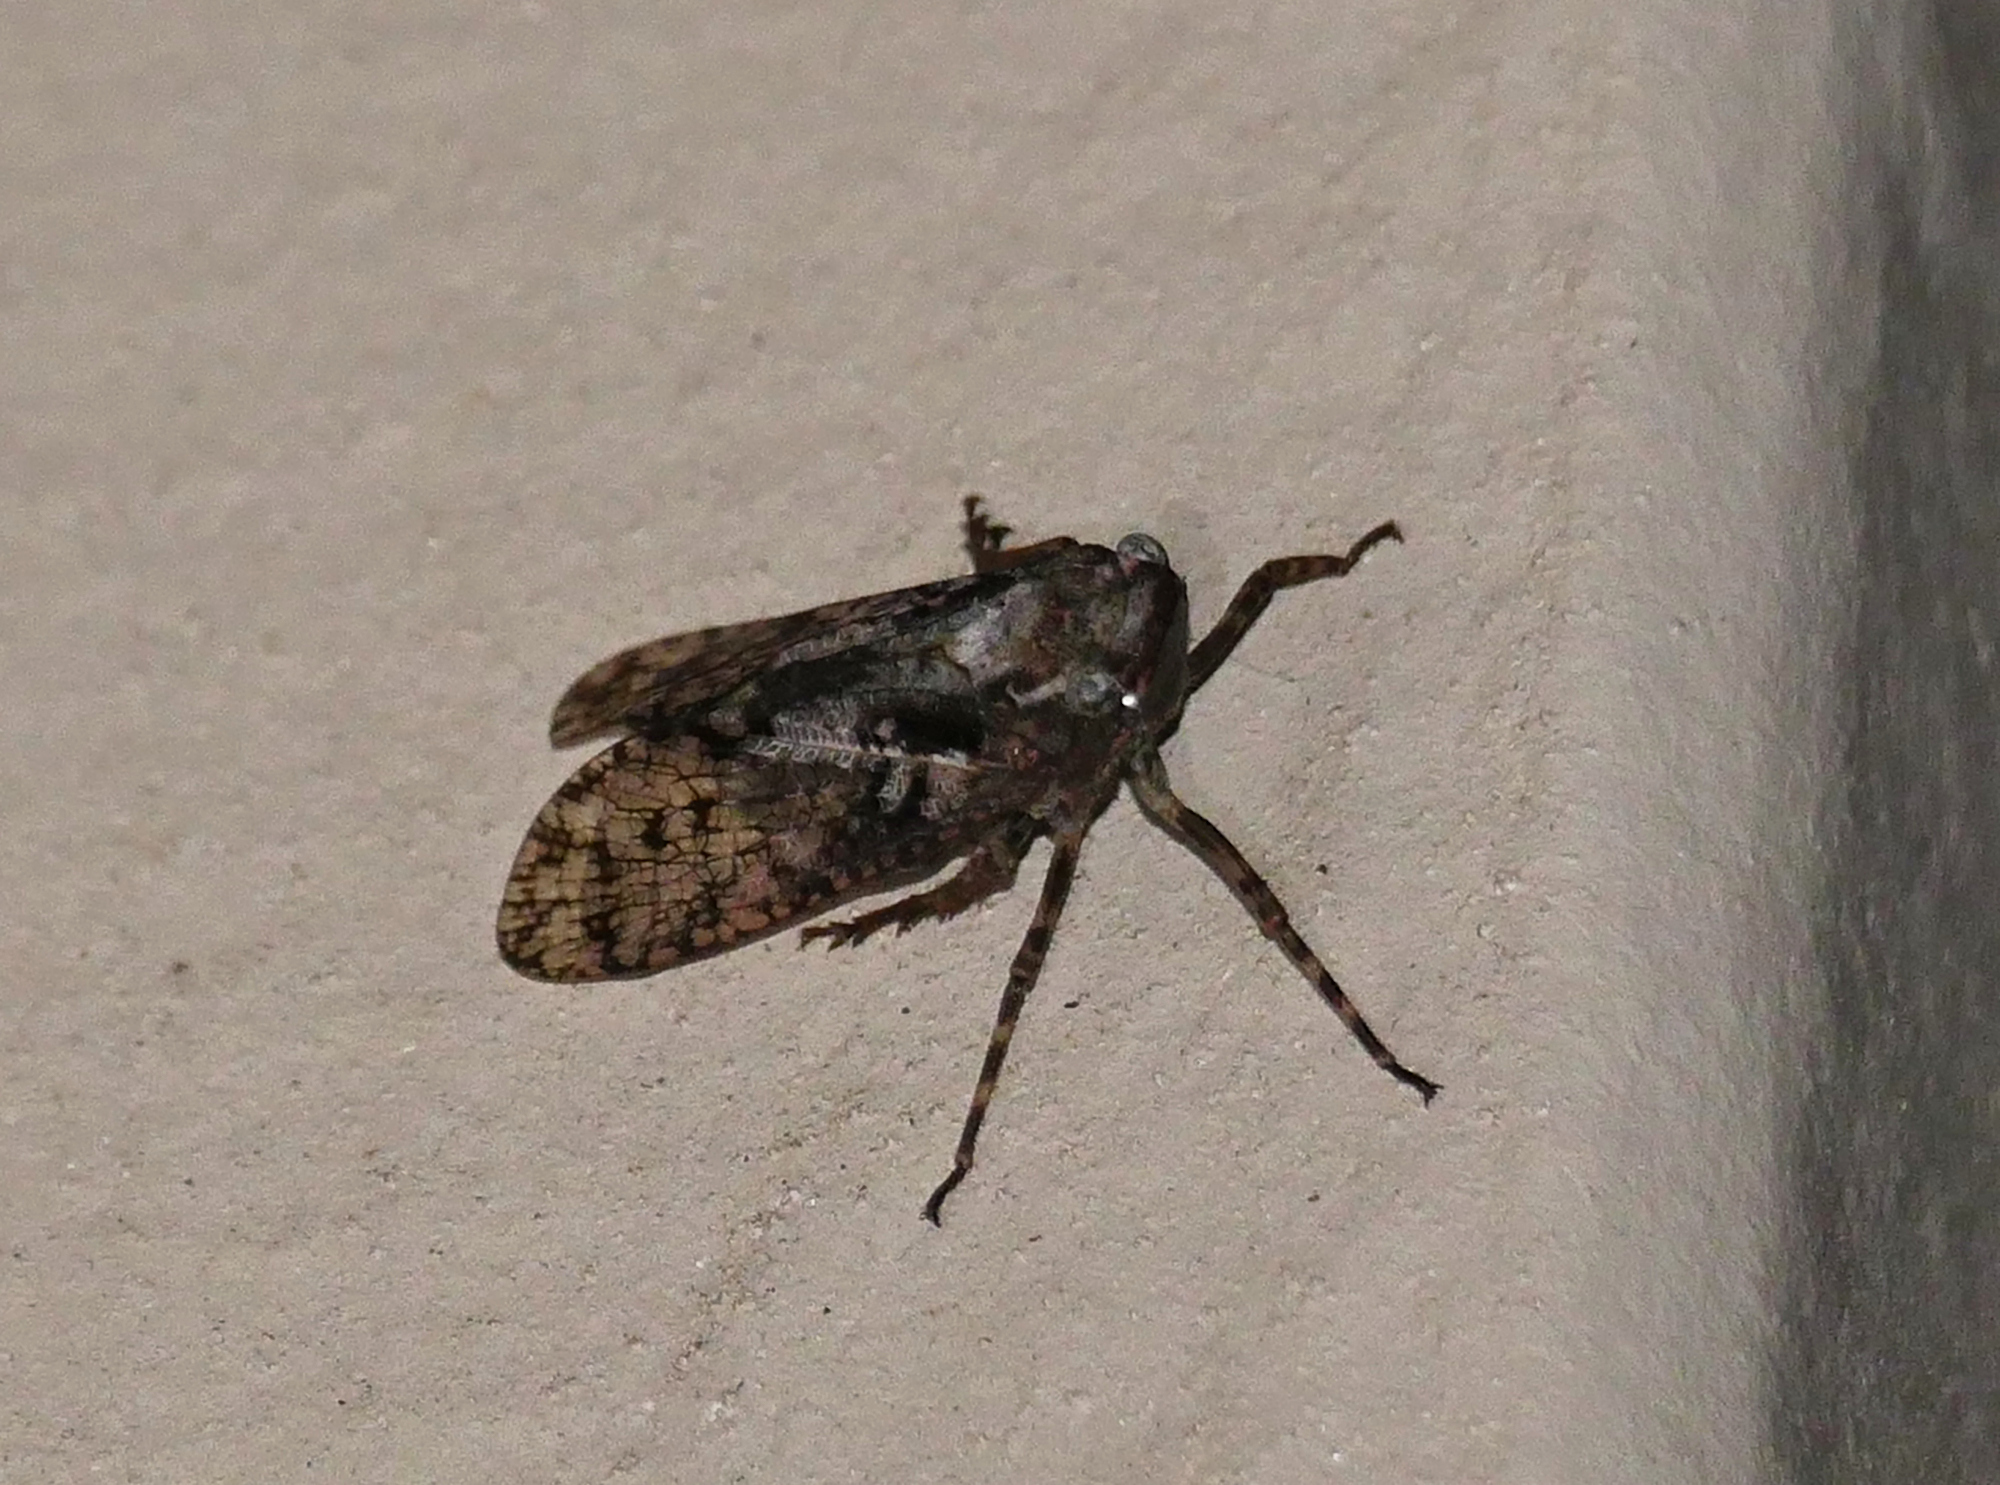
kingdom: Animalia
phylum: Arthropoda
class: Insecta
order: Hemiptera
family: Fulgoridae
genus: Alphina
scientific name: Alphina glauca
